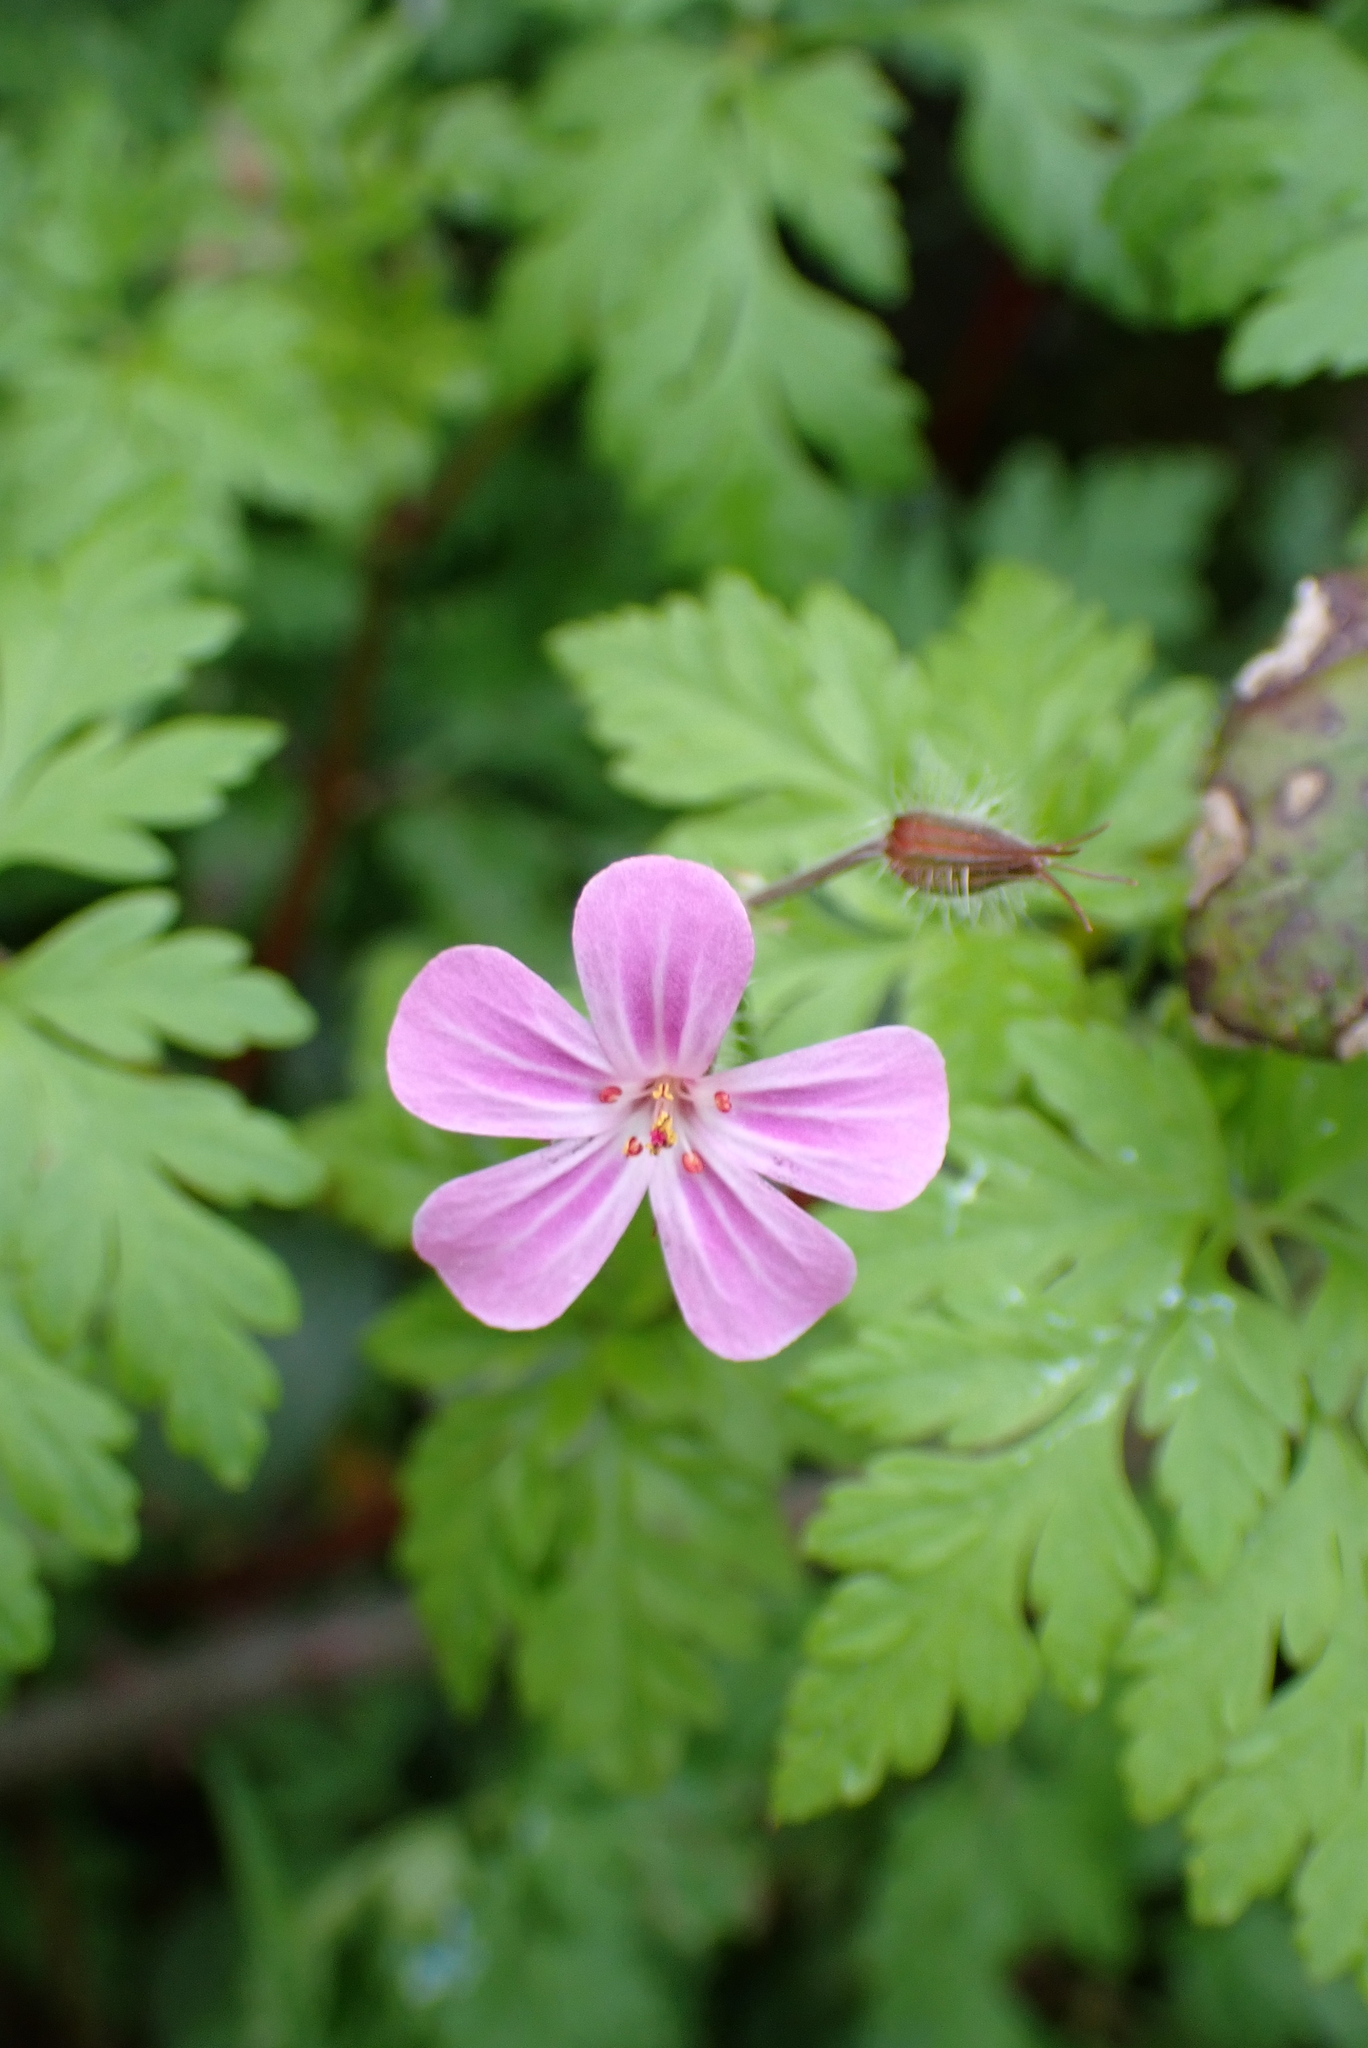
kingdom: Plantae
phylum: Tracheophyta
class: Magnoliopsida
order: Geraniales
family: Geraniaceae
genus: Geranium
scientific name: Geranium robertianum
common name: Herb-robert
